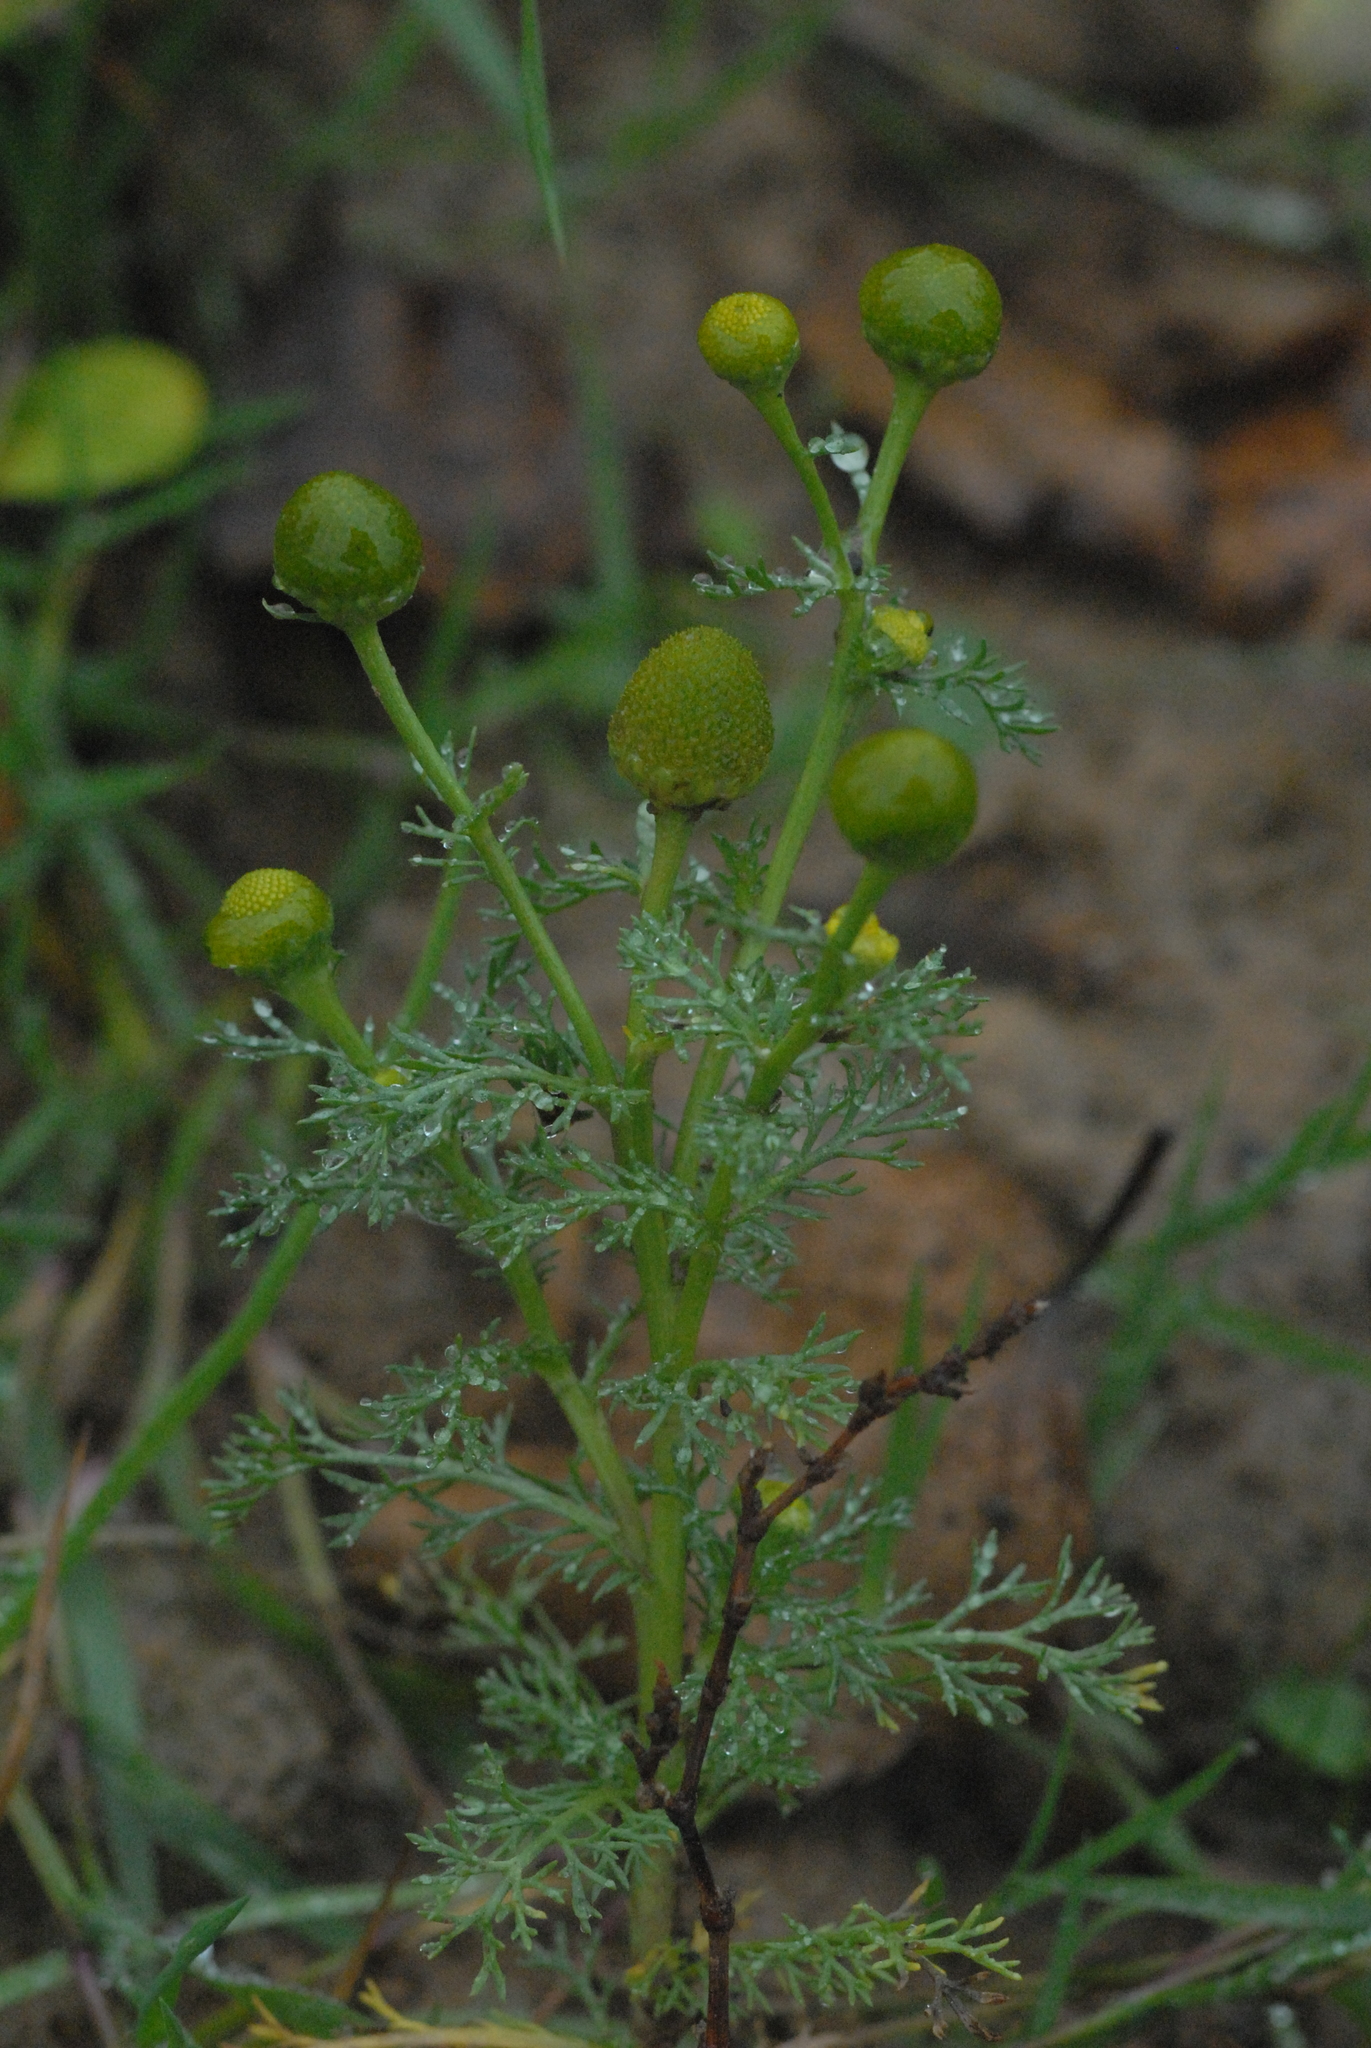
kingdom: Plantae
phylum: Tracheophyta
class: Magnoliopsida
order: Asterales
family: Asteraceae
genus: Matricaria
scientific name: Matricaria discoidea
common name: Disc mayweed
